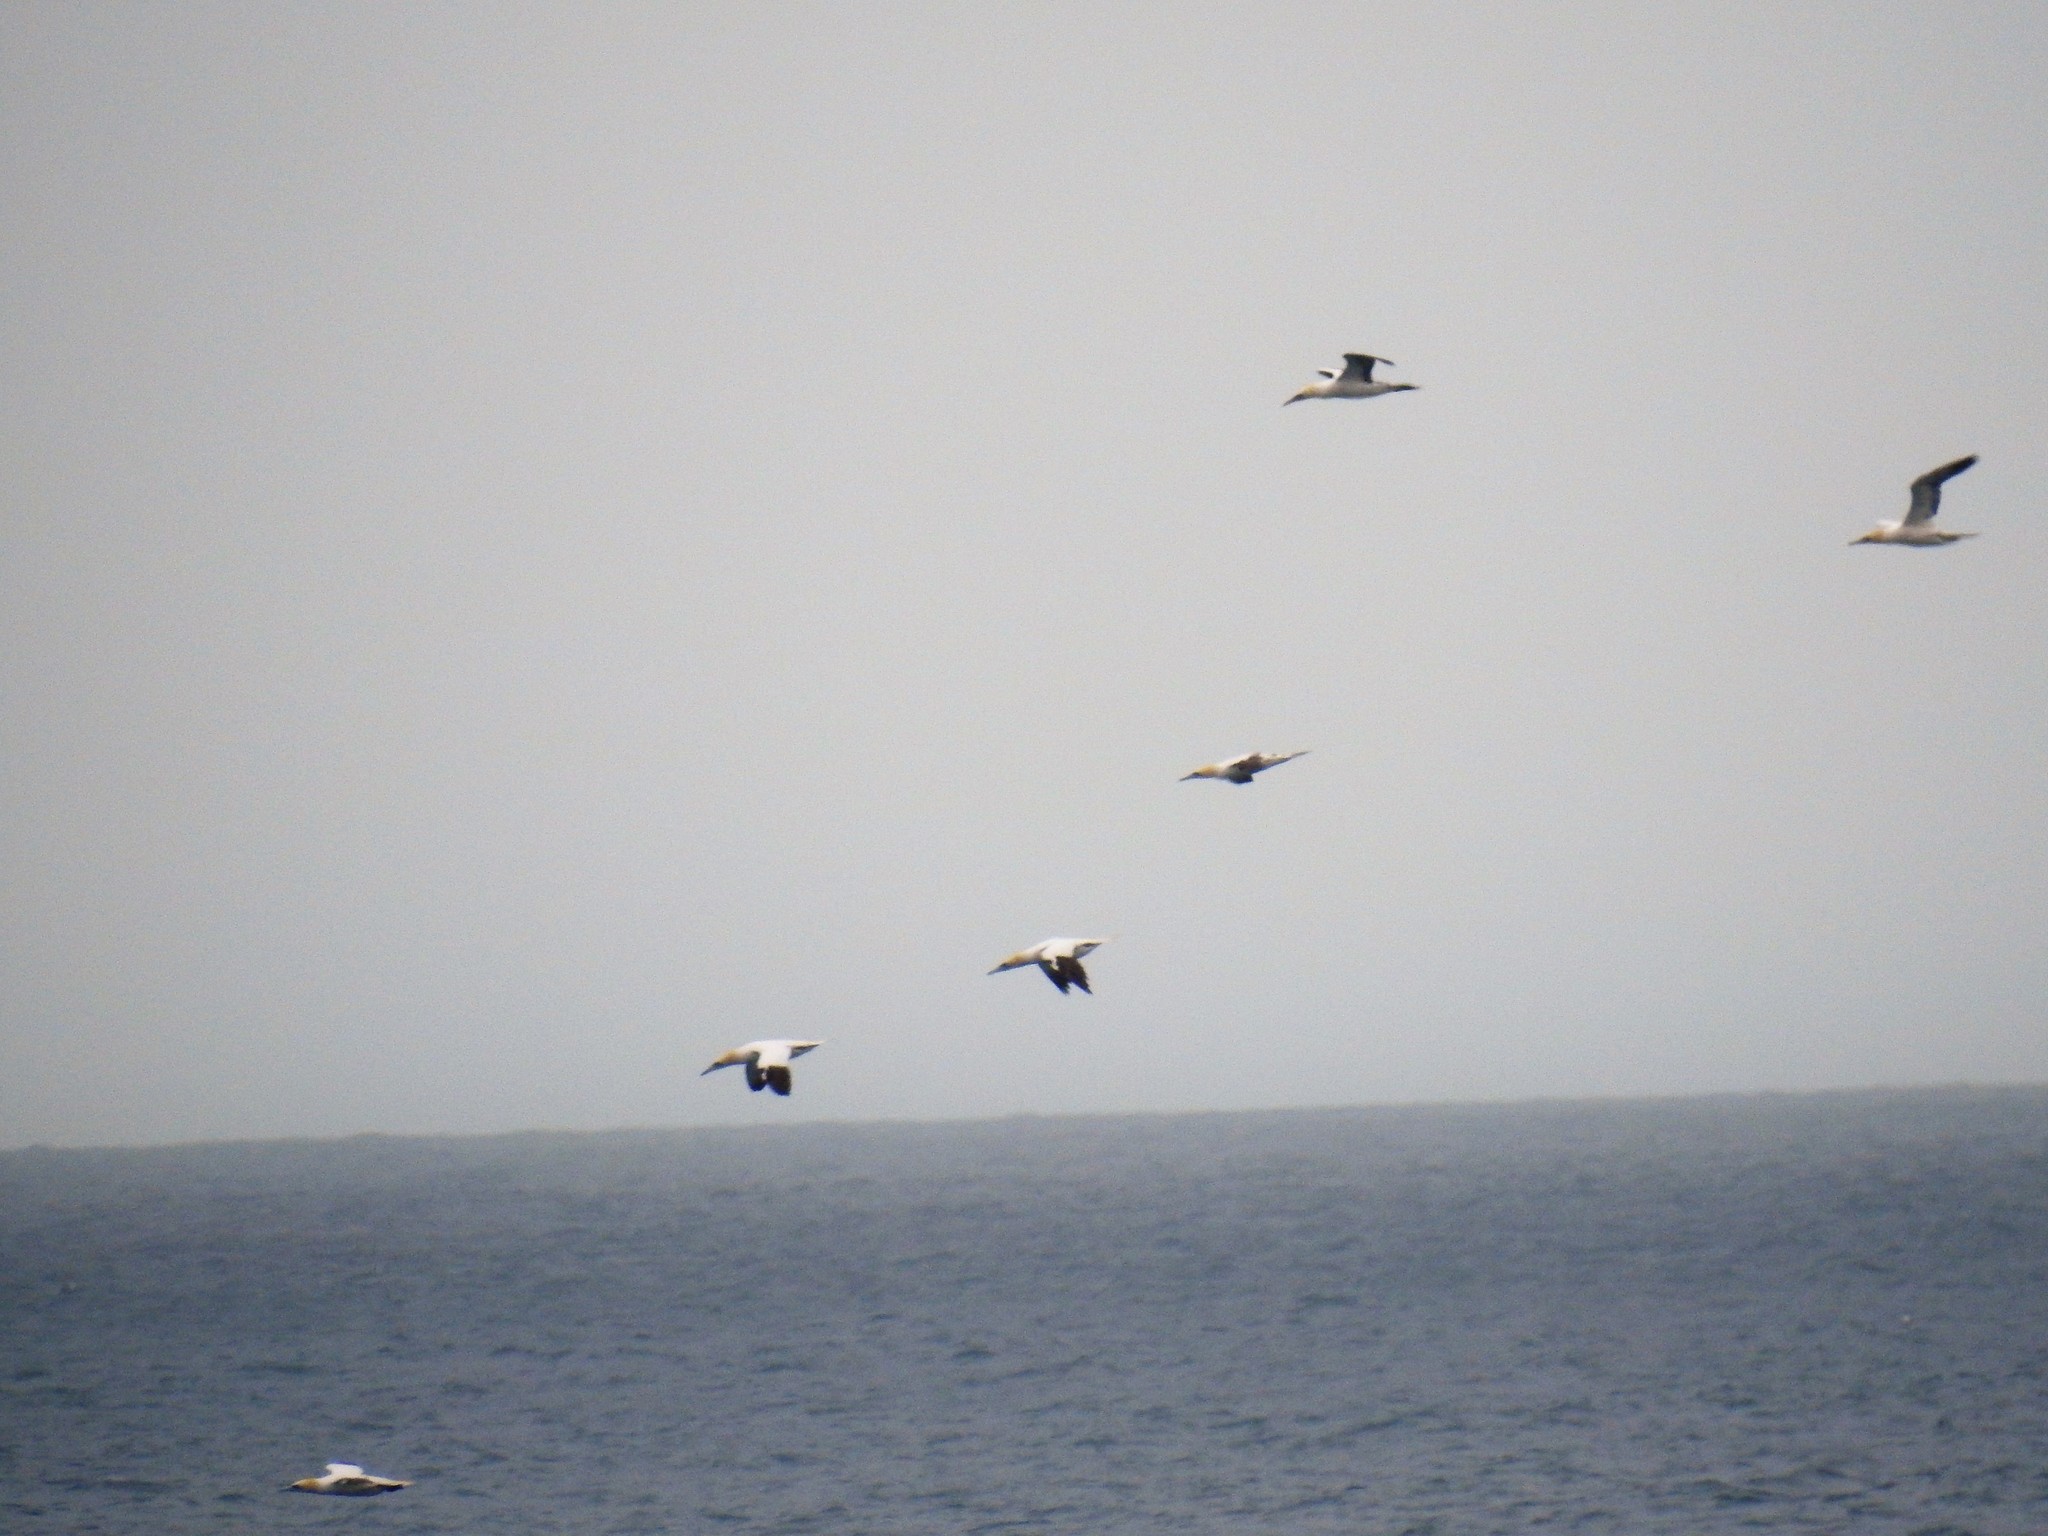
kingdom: Animalia
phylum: Chordata
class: Aves
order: Suliformes
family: Sulidae
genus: Morus
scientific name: Morus bassanus
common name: Northern gannet
